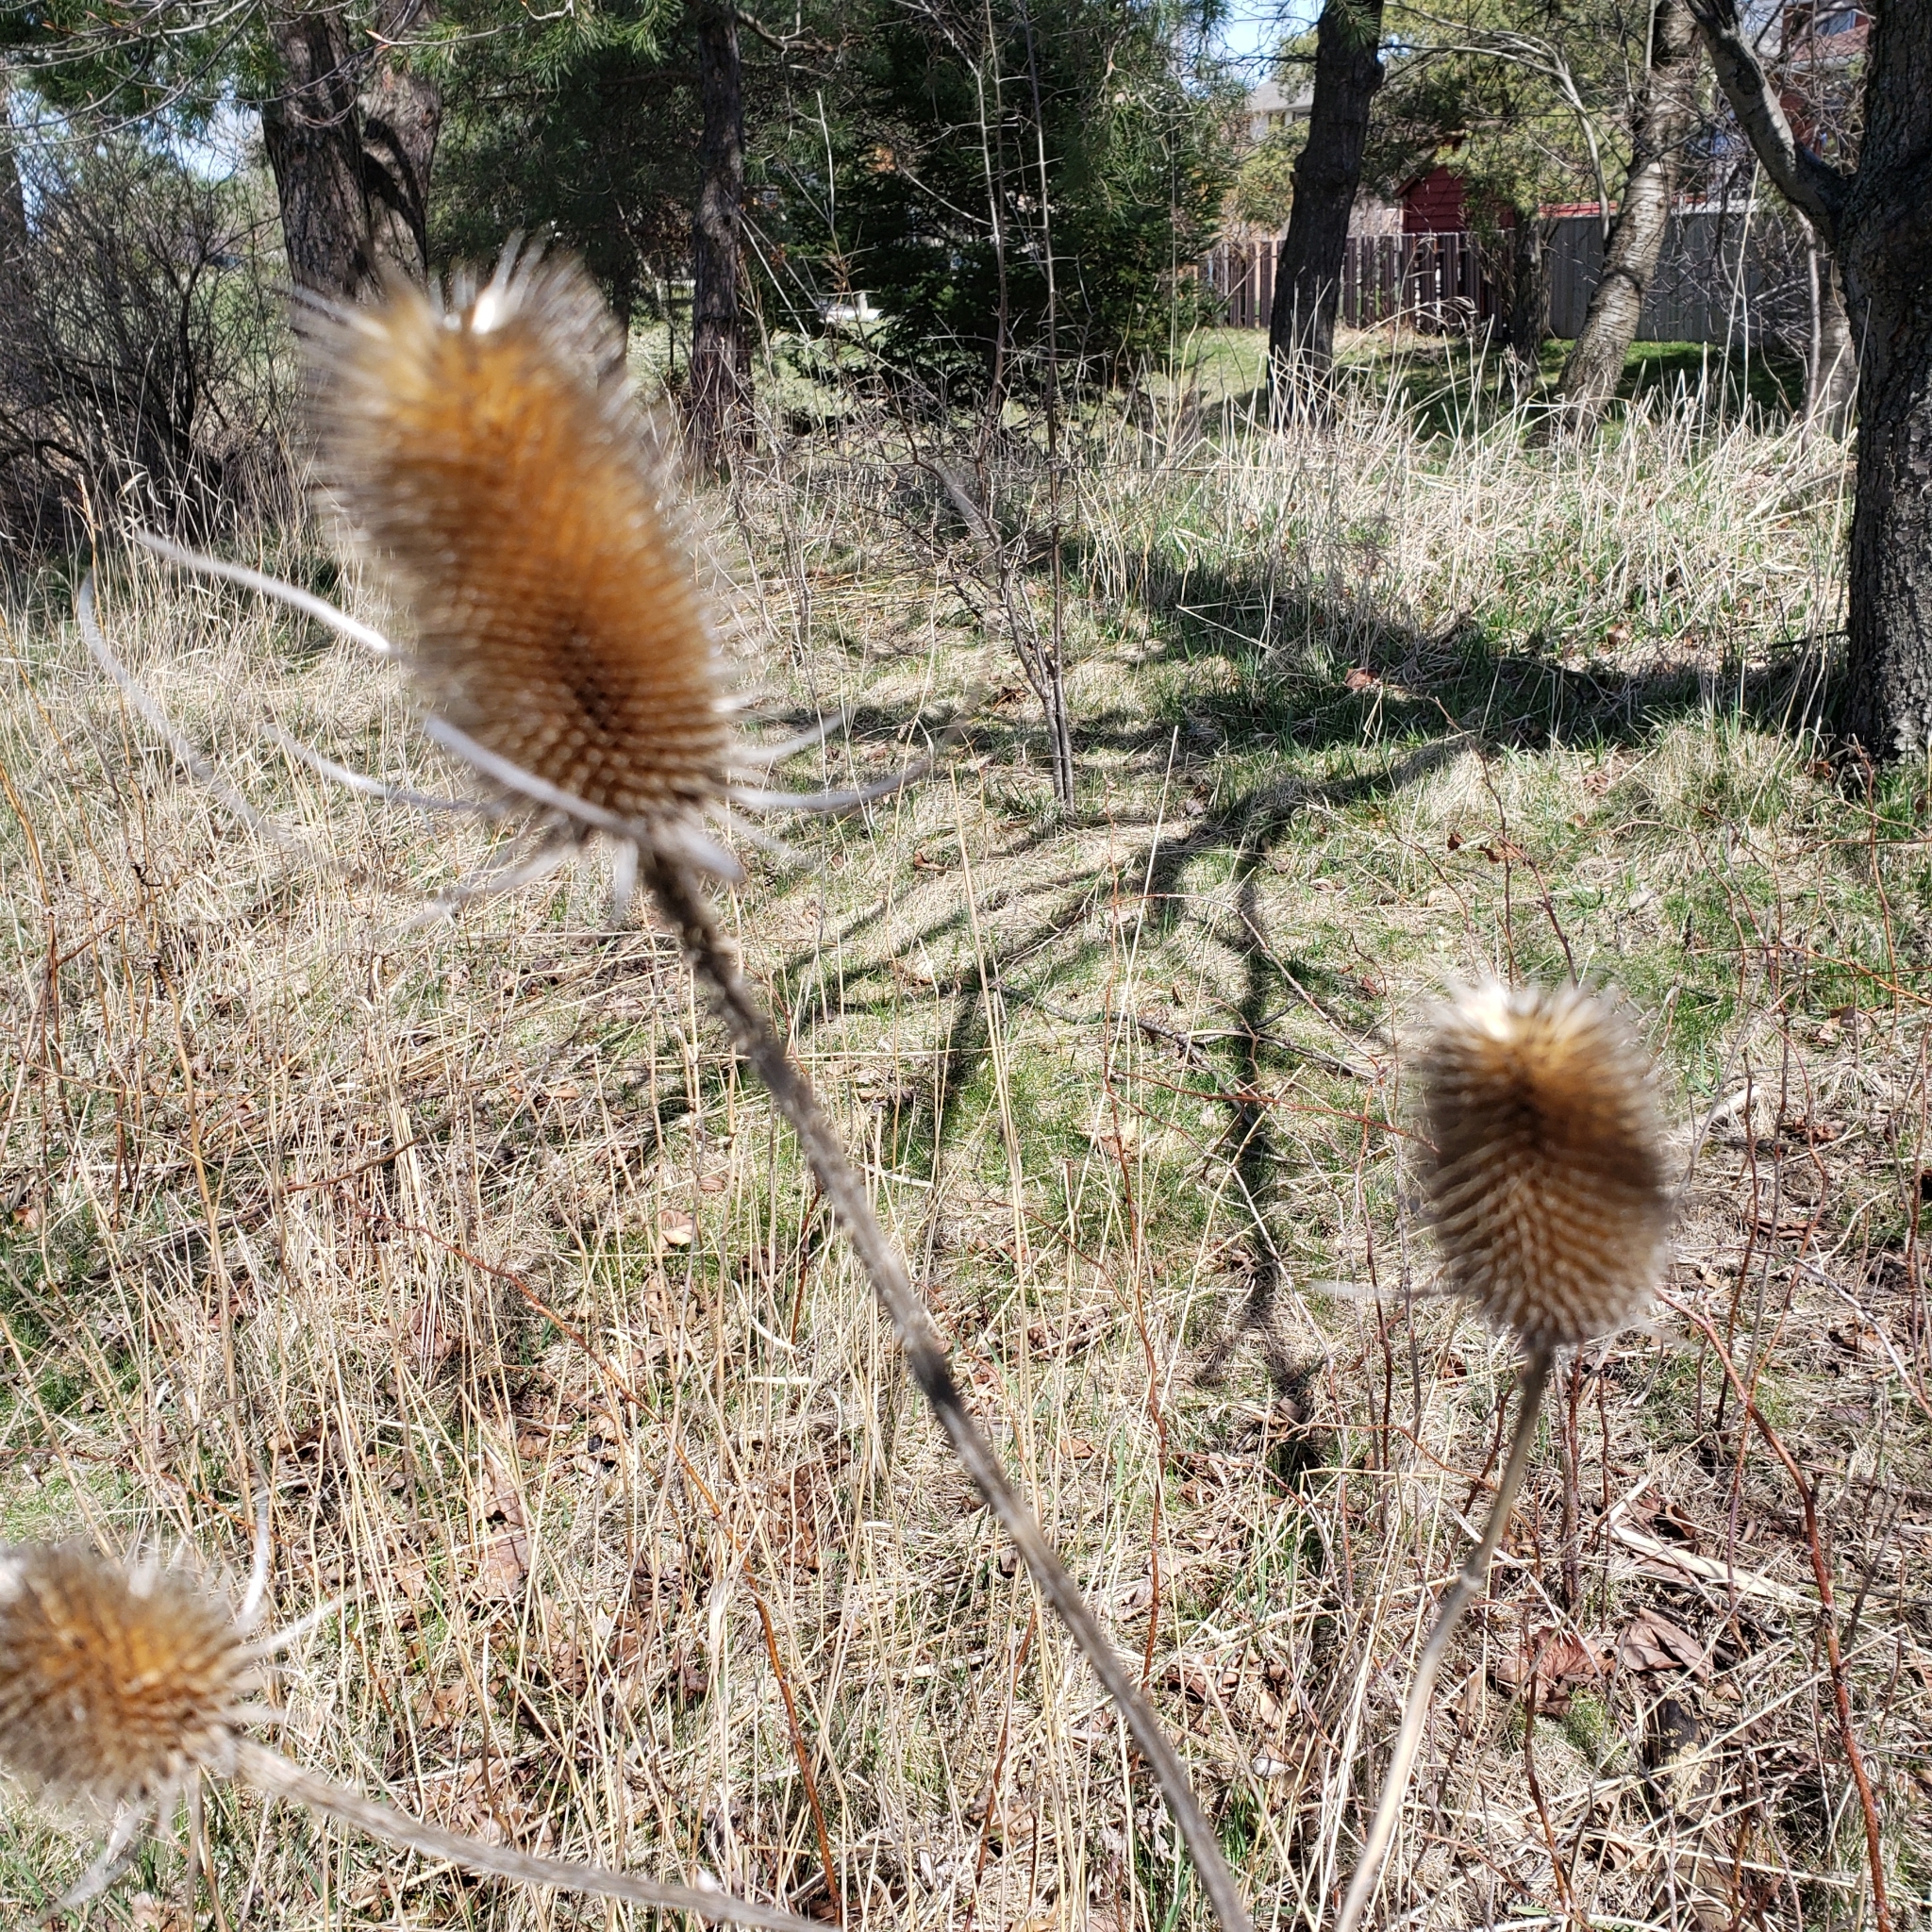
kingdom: Plantae
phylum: Tracheophyta
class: Magnoliopsida
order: Dipsacales
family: Caprifoliaceae
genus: Dipsacus
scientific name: Dipsacus fullonum
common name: Teasel
